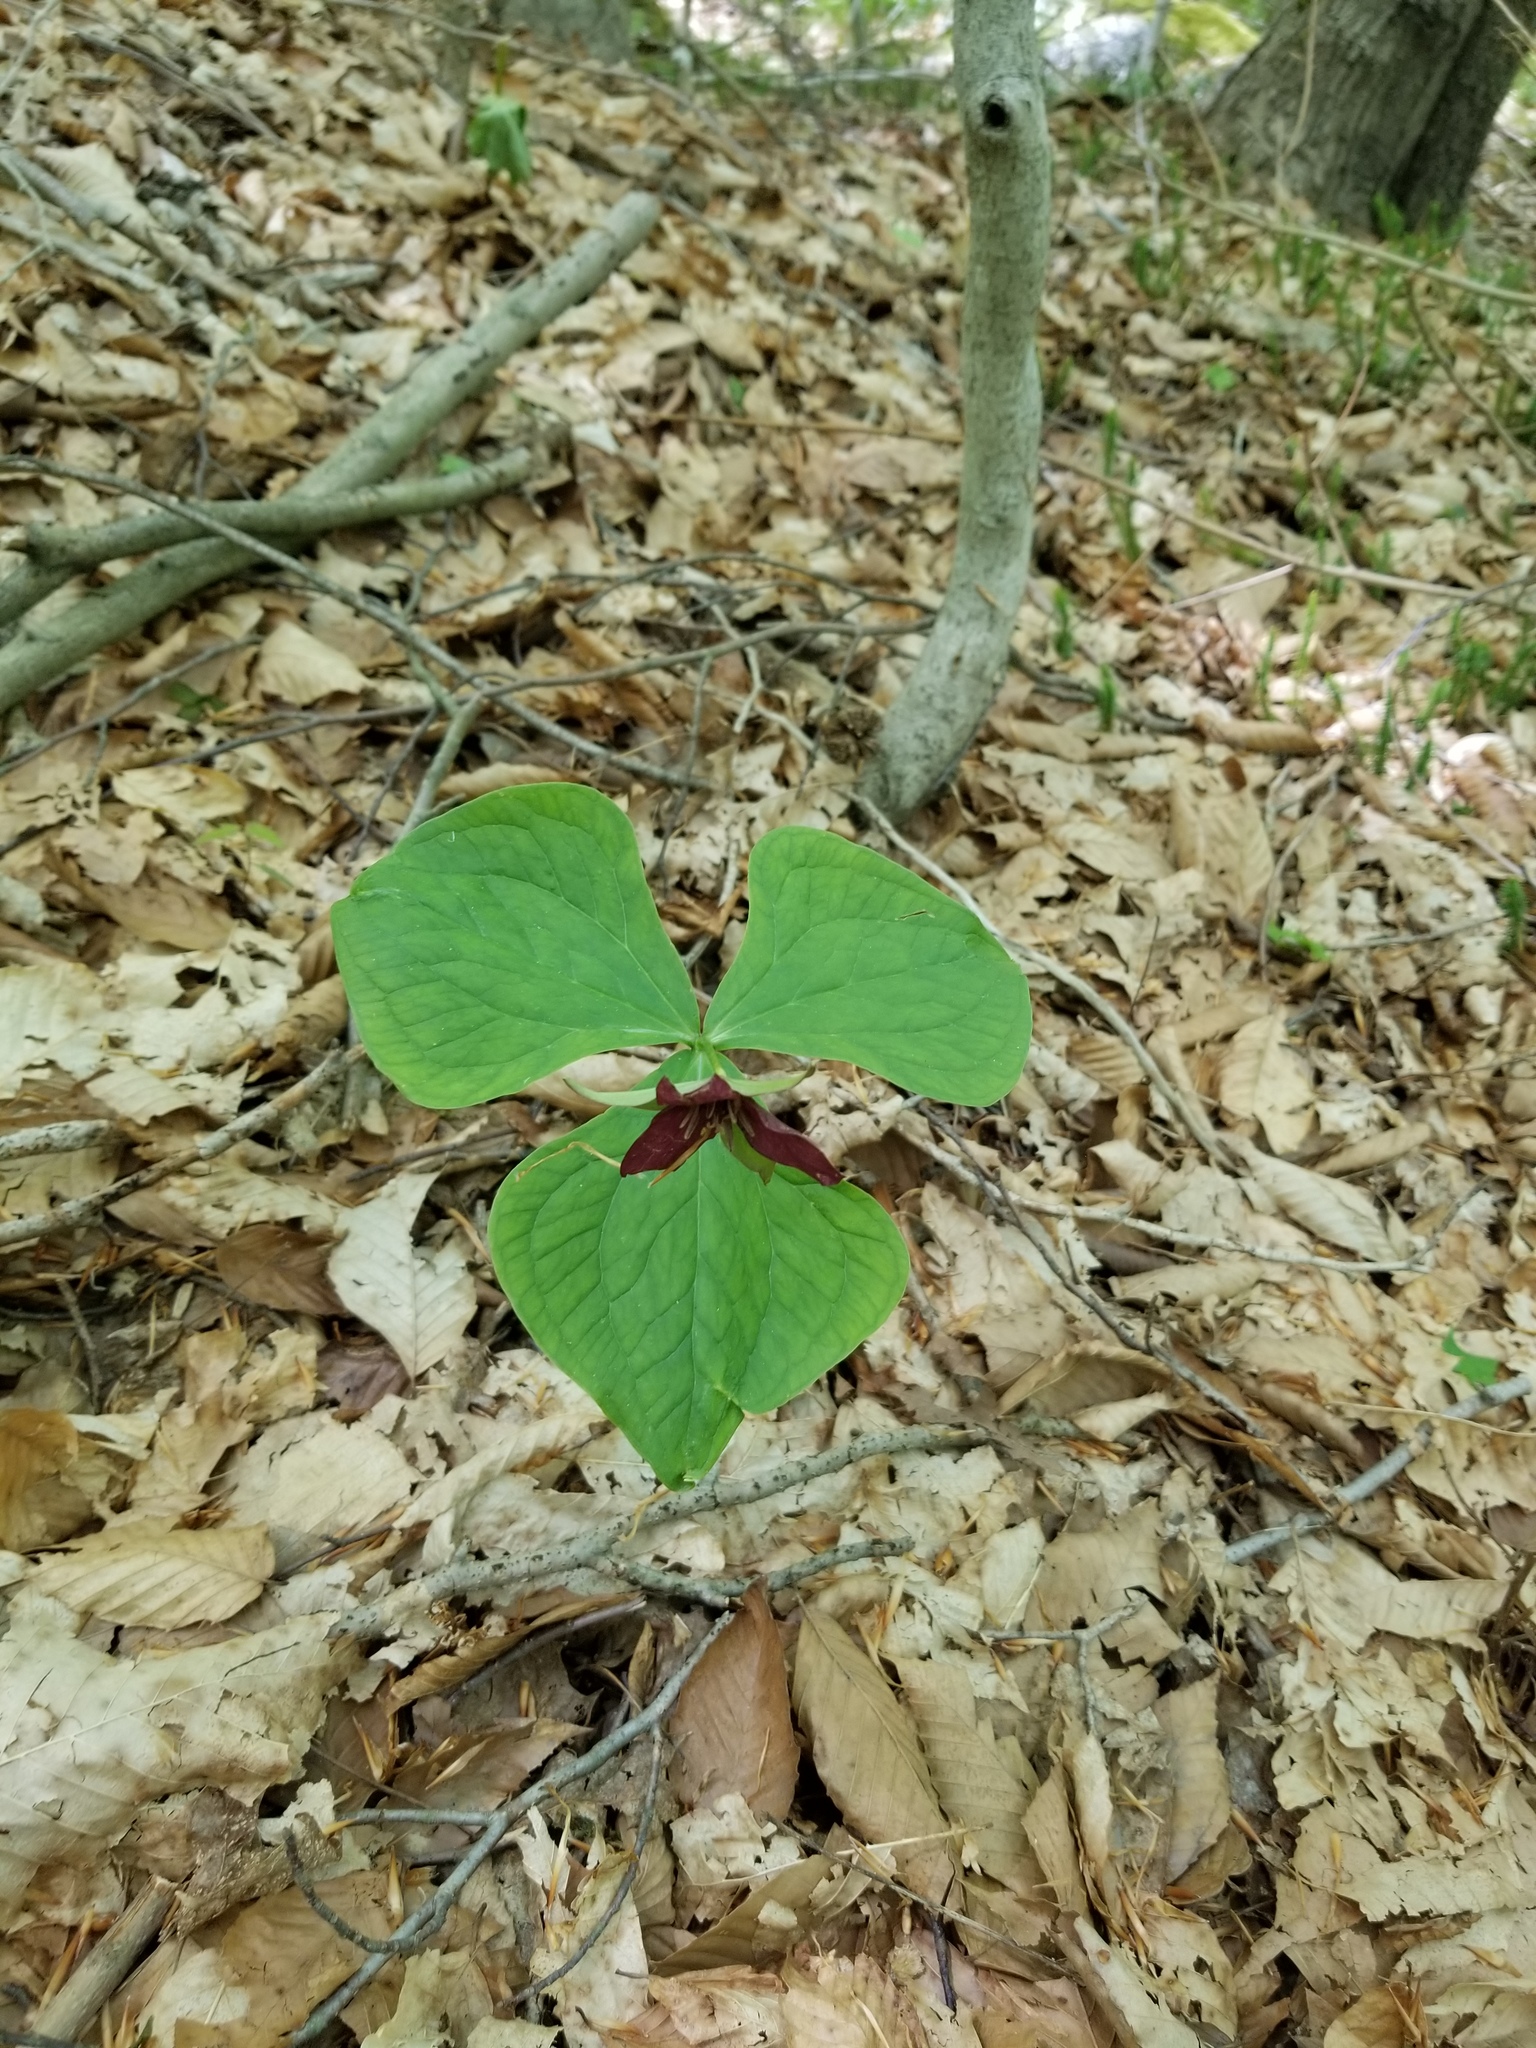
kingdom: Plantae
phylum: Tracheophyta
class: Liliopsida
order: Liliales
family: Melanthiaceae
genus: Trillium
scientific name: Trillium erectum
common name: Purple trillium
